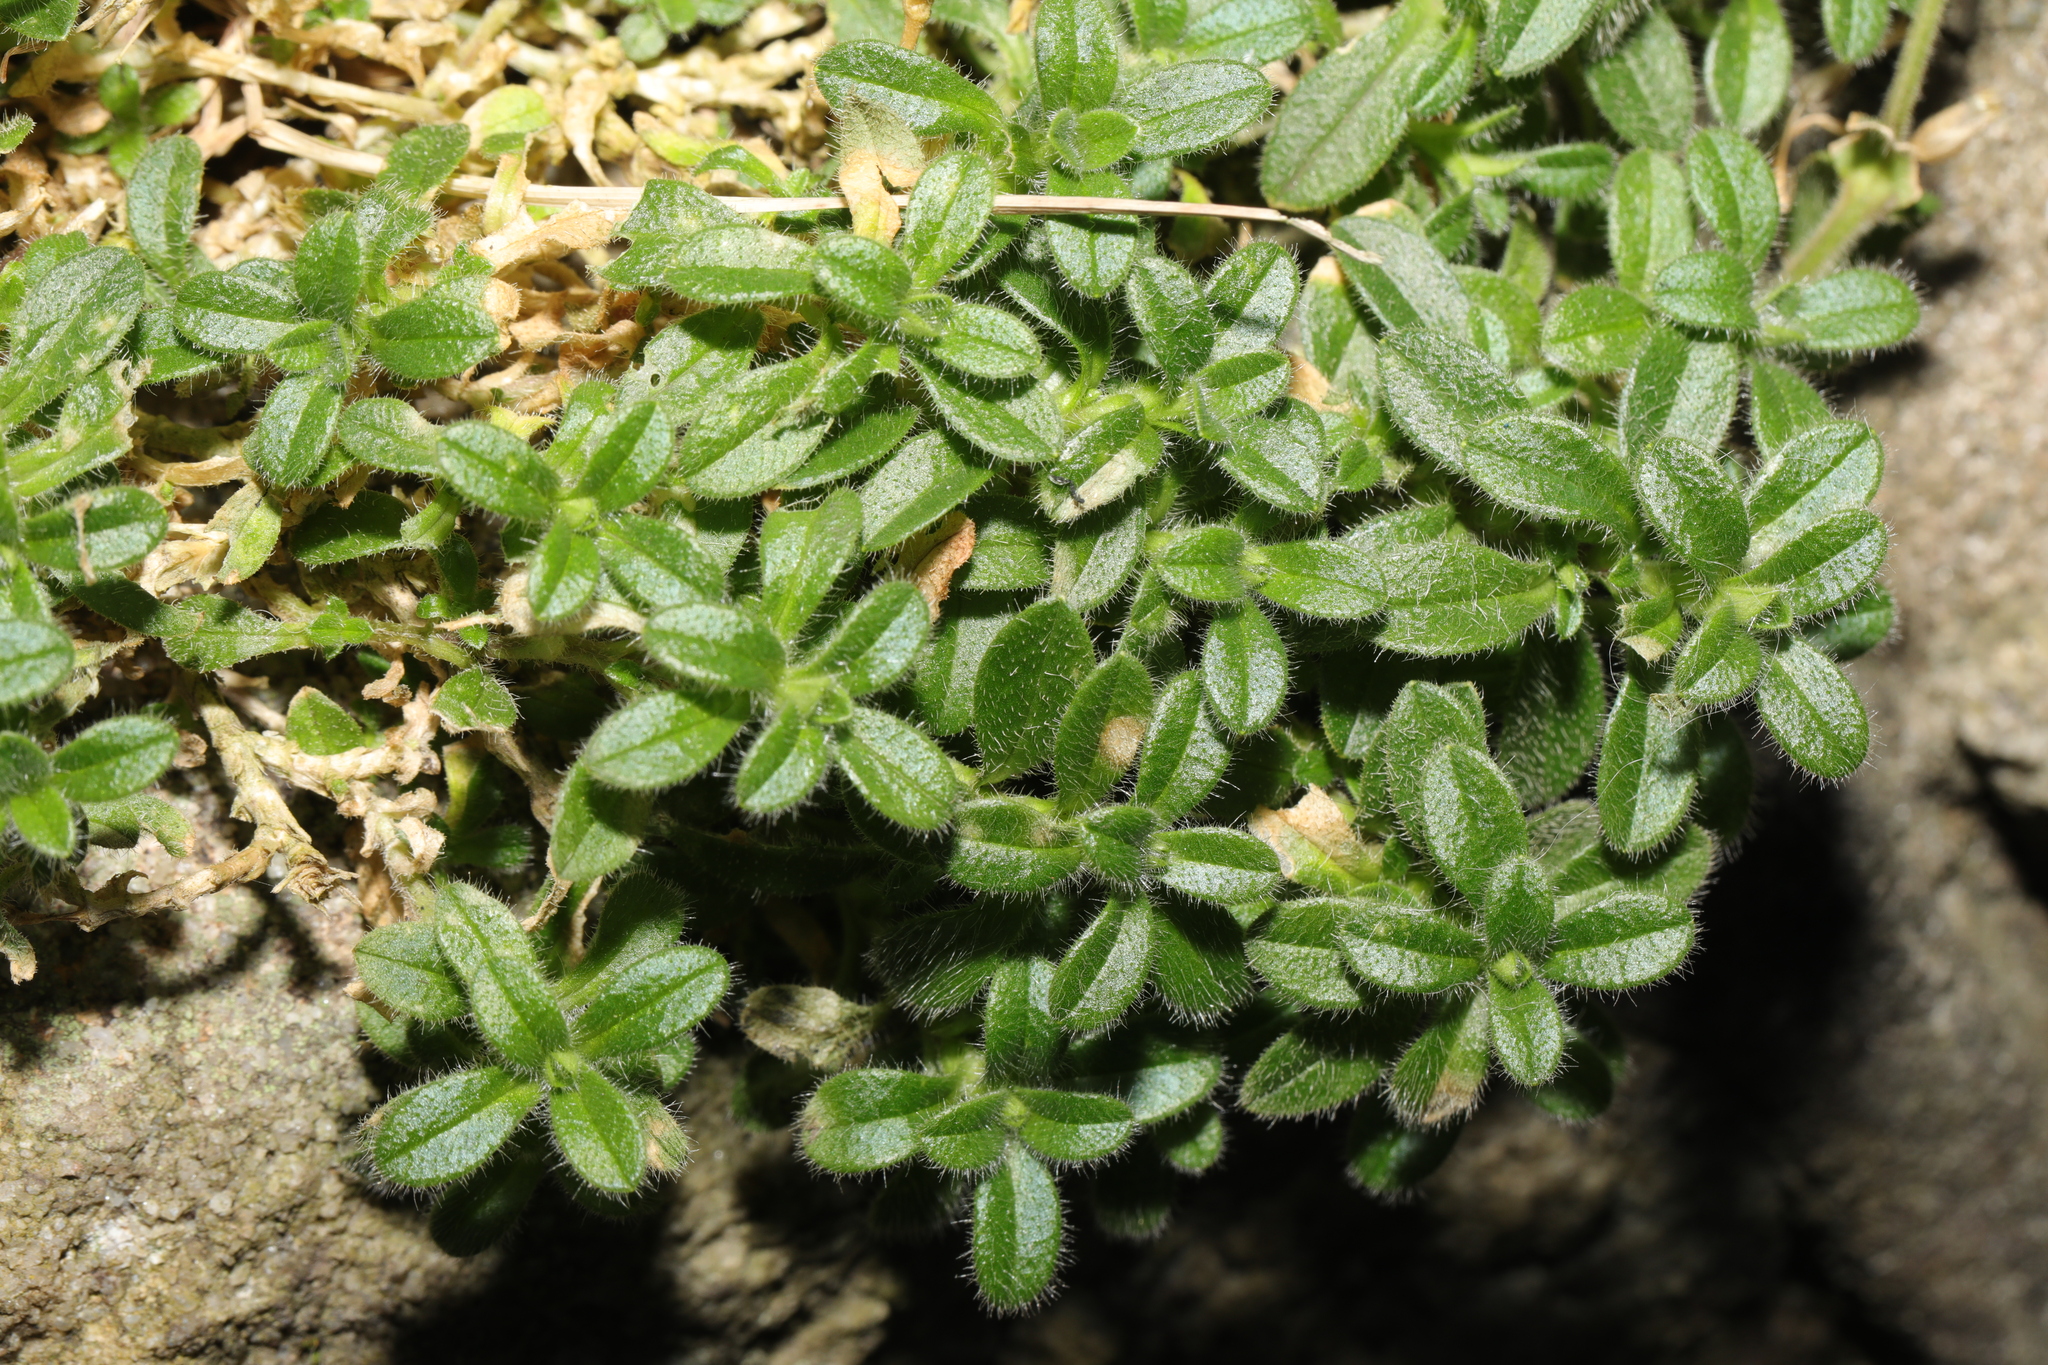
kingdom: Plantae
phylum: Tracheophyta
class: Magnoliopsida
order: Caryophyllales
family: Caryophyllaceae
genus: Cerastium
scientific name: Cerastium fontanum
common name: Common mouse-ear
